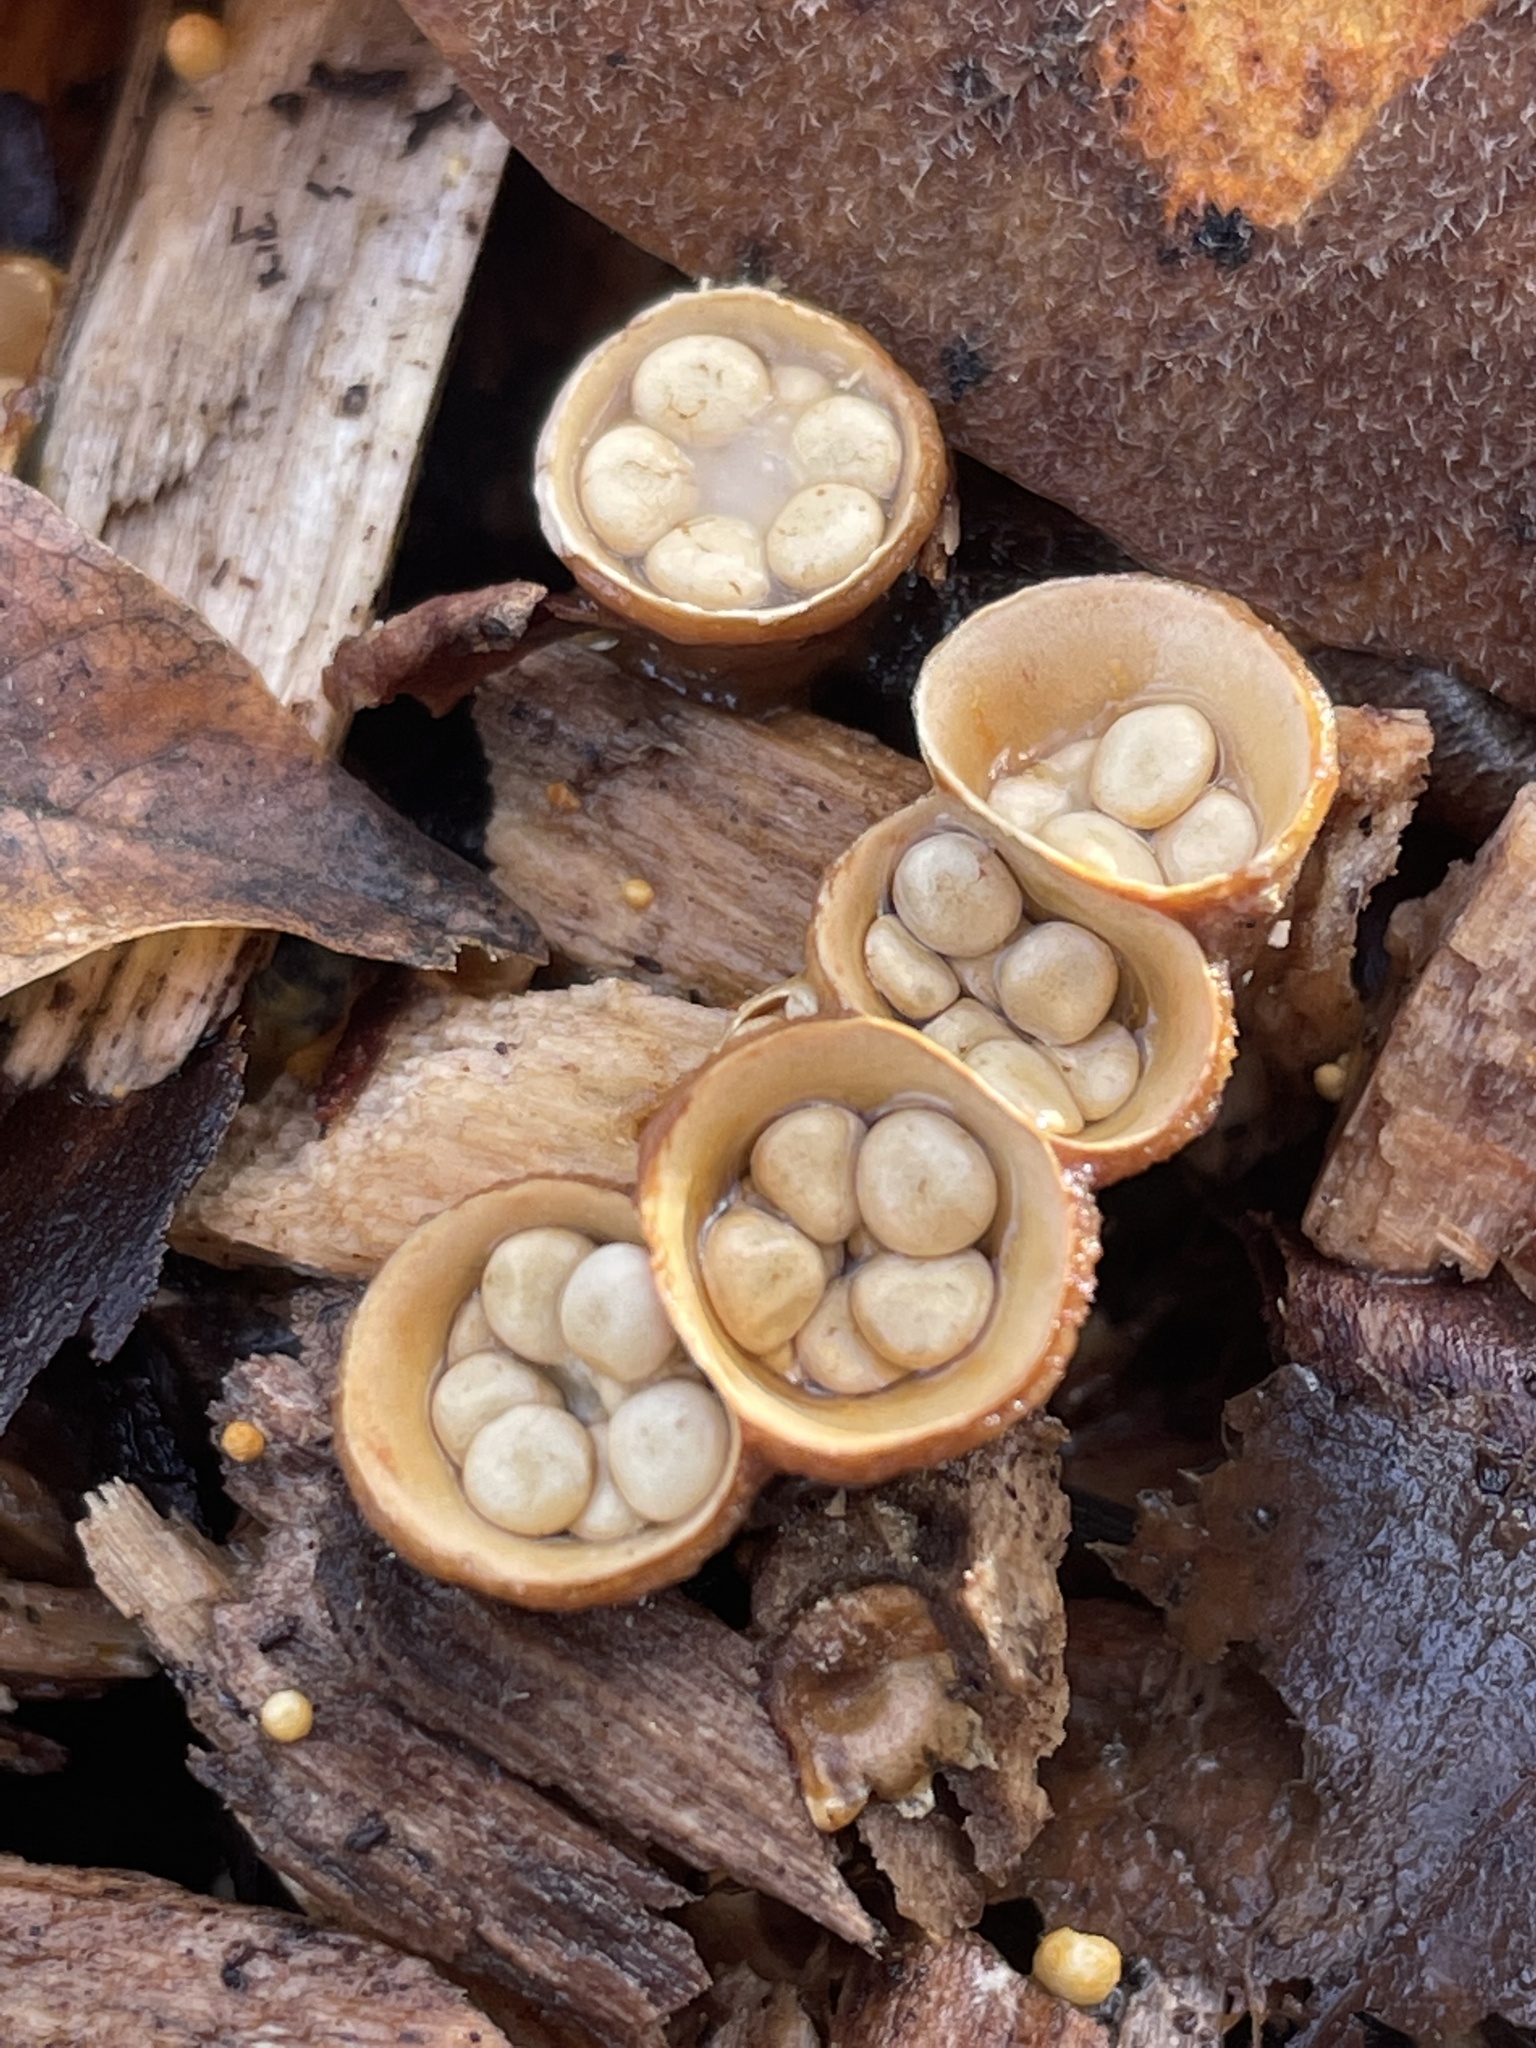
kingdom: Fungi
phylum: Basidiomycota
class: Agaricomycetes
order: Agaricales
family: Nidulariaceae
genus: Crucibulum
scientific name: Crucibulum laeve
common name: Common bird's nest
